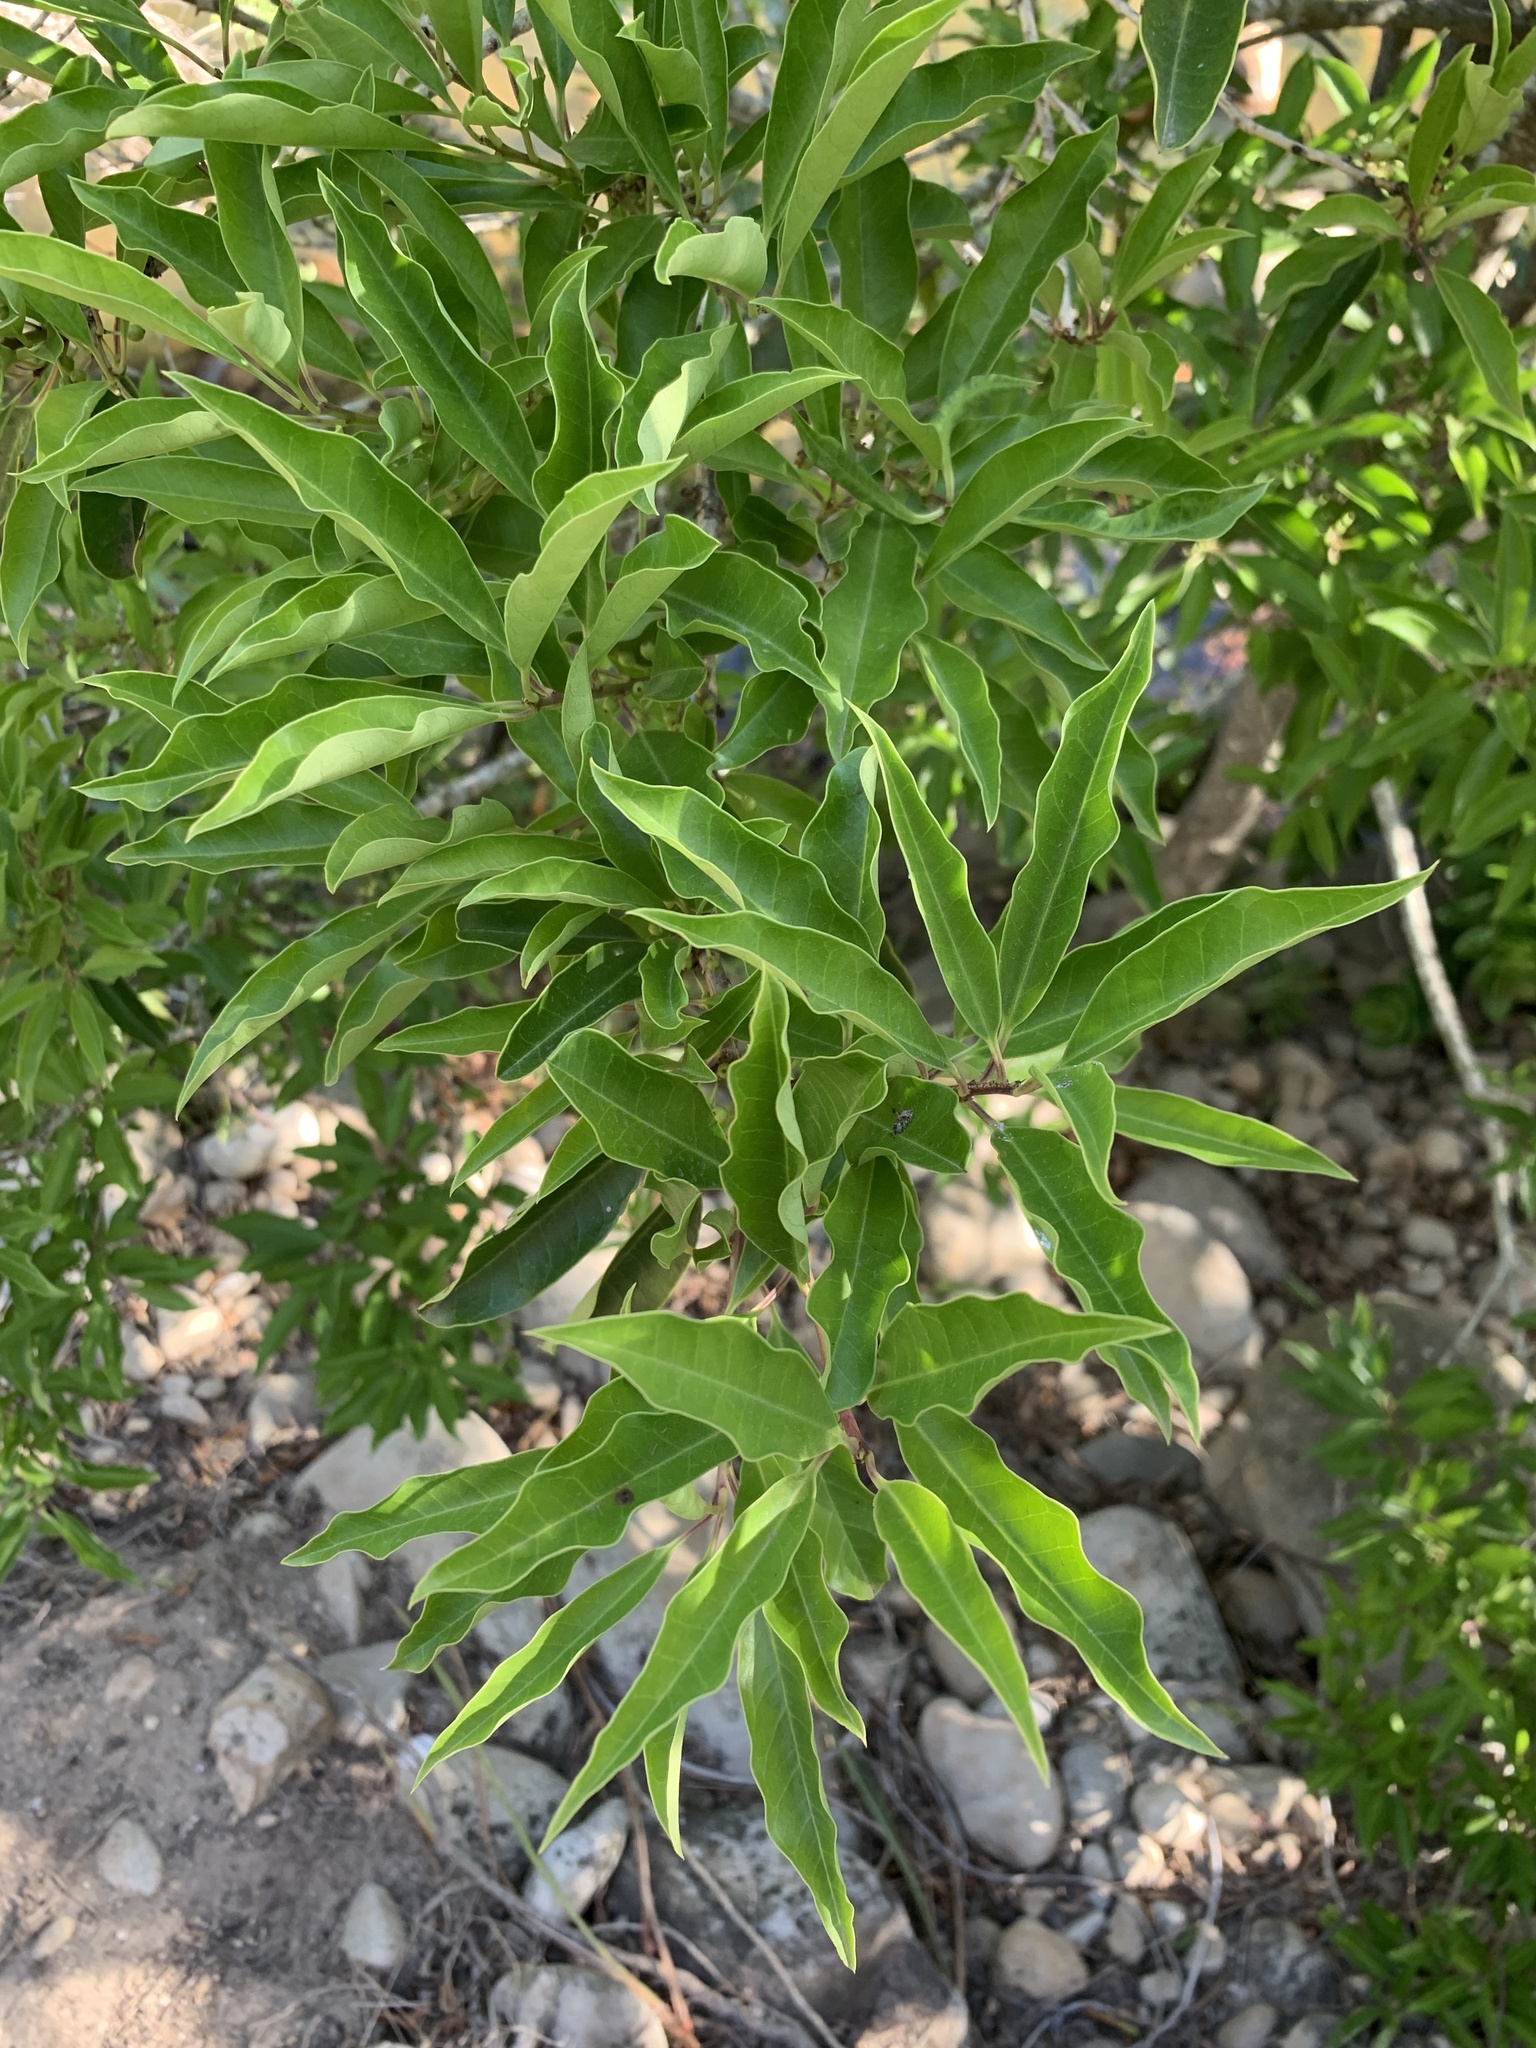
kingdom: Plantae
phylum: Tracheophyta
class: Magnoliopsida
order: Aquifoliales
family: Aquifoliaceae
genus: Ilex
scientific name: Ilex mitis
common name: African holly
